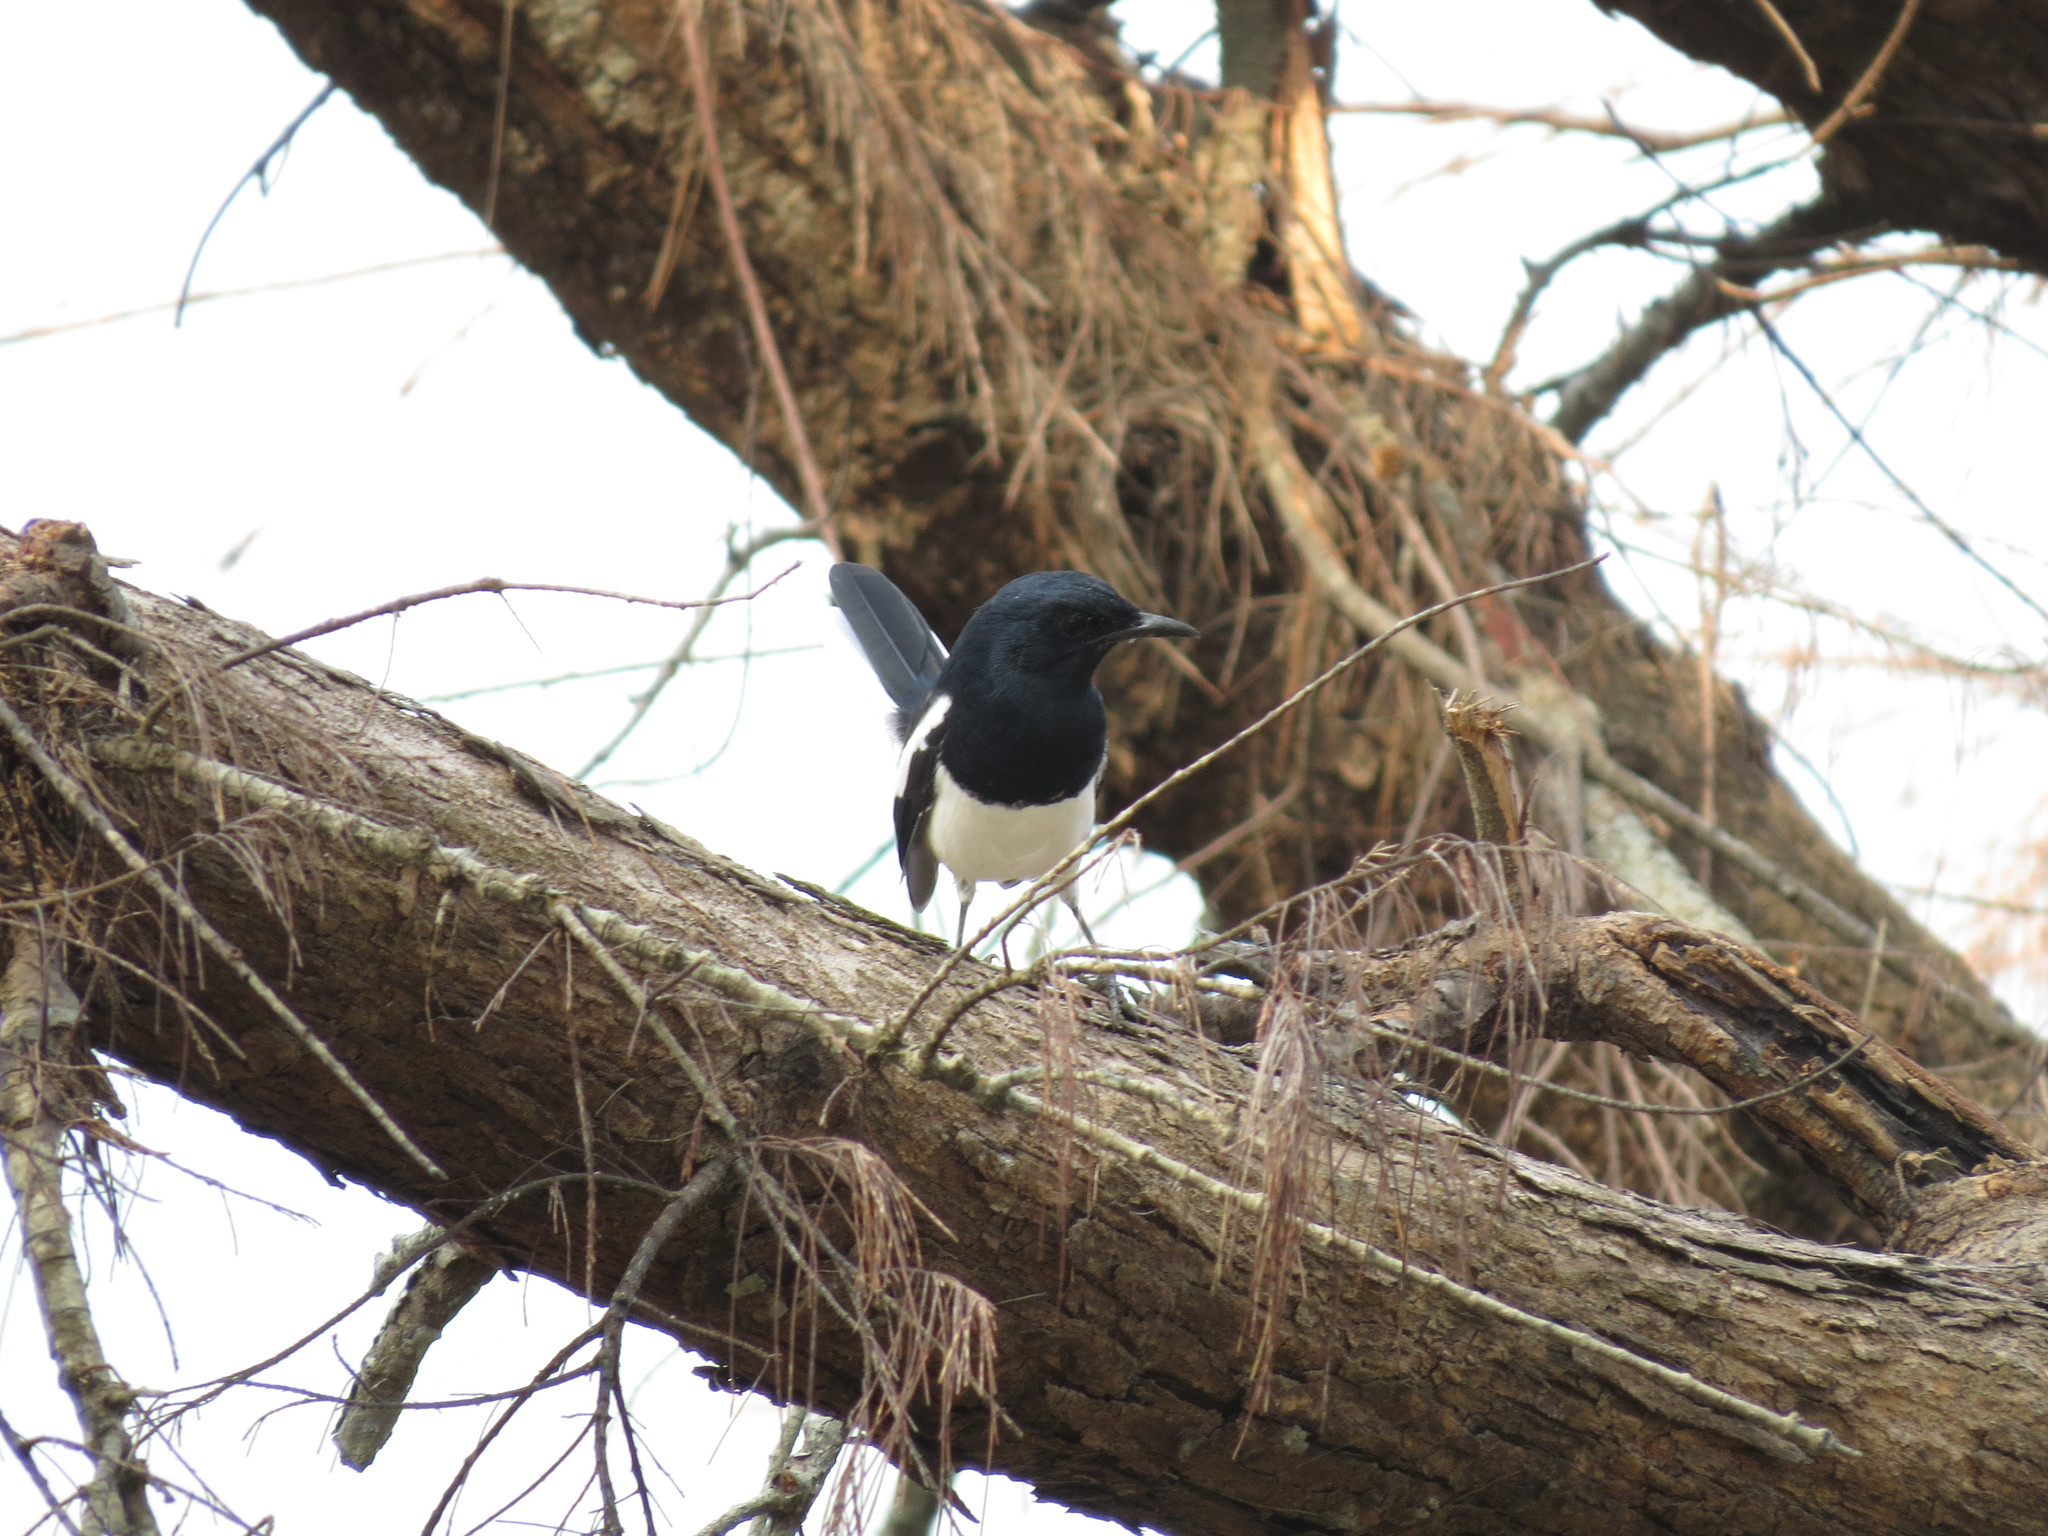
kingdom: Animalia
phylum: Chordata
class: Aves
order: Passeriformes
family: Muscicapidae
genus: Copsychus
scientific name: Copsychus saularis
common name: Oriental magpie-robin
